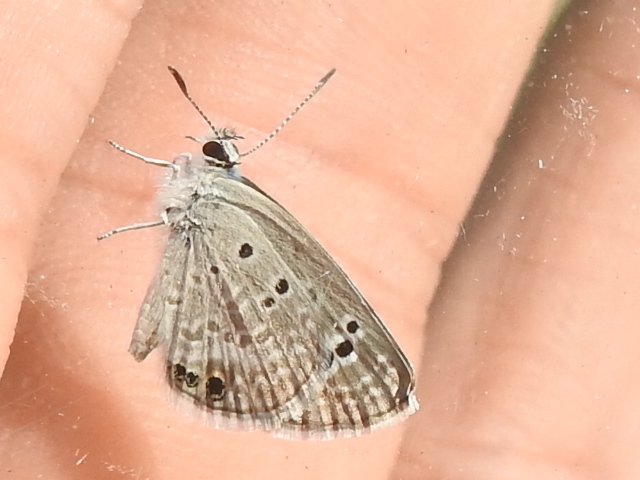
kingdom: Animalia
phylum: Arthropoda
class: Insecta
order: Lepidoptera
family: Lycaenidae
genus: Echinargus
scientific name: Echinargus isola
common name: Reakirt's blue
